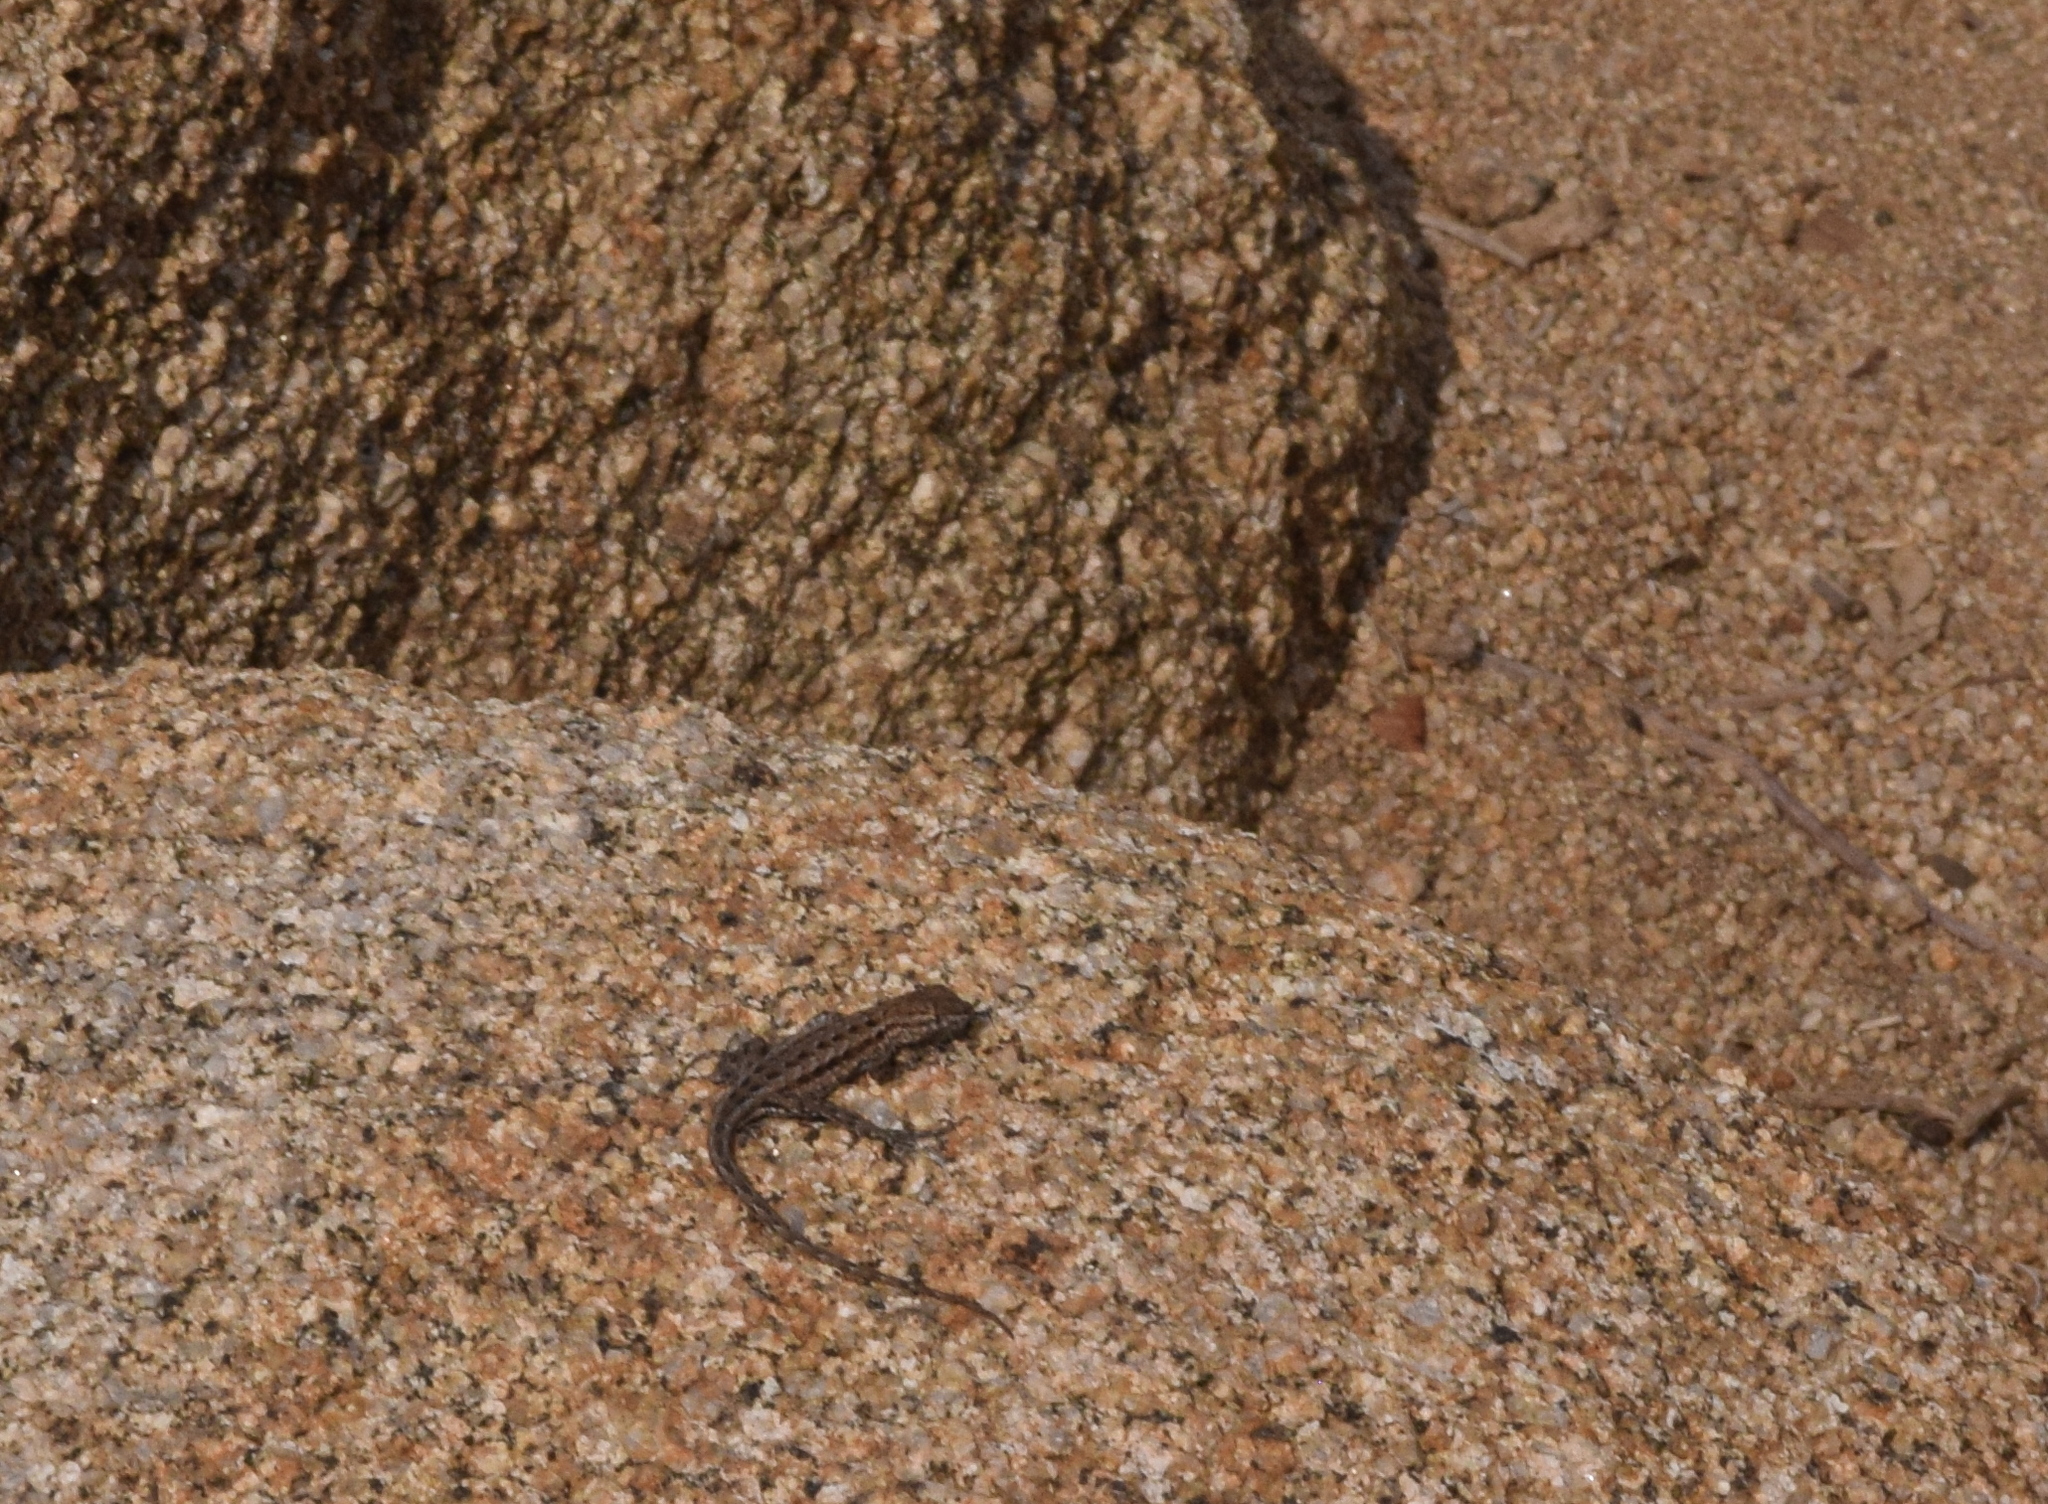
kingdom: Animalia
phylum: Chordata
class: Squamata
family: Phrynosomatidae
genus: Uta
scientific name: Uta stansburiana
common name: Side-blotched lizard
